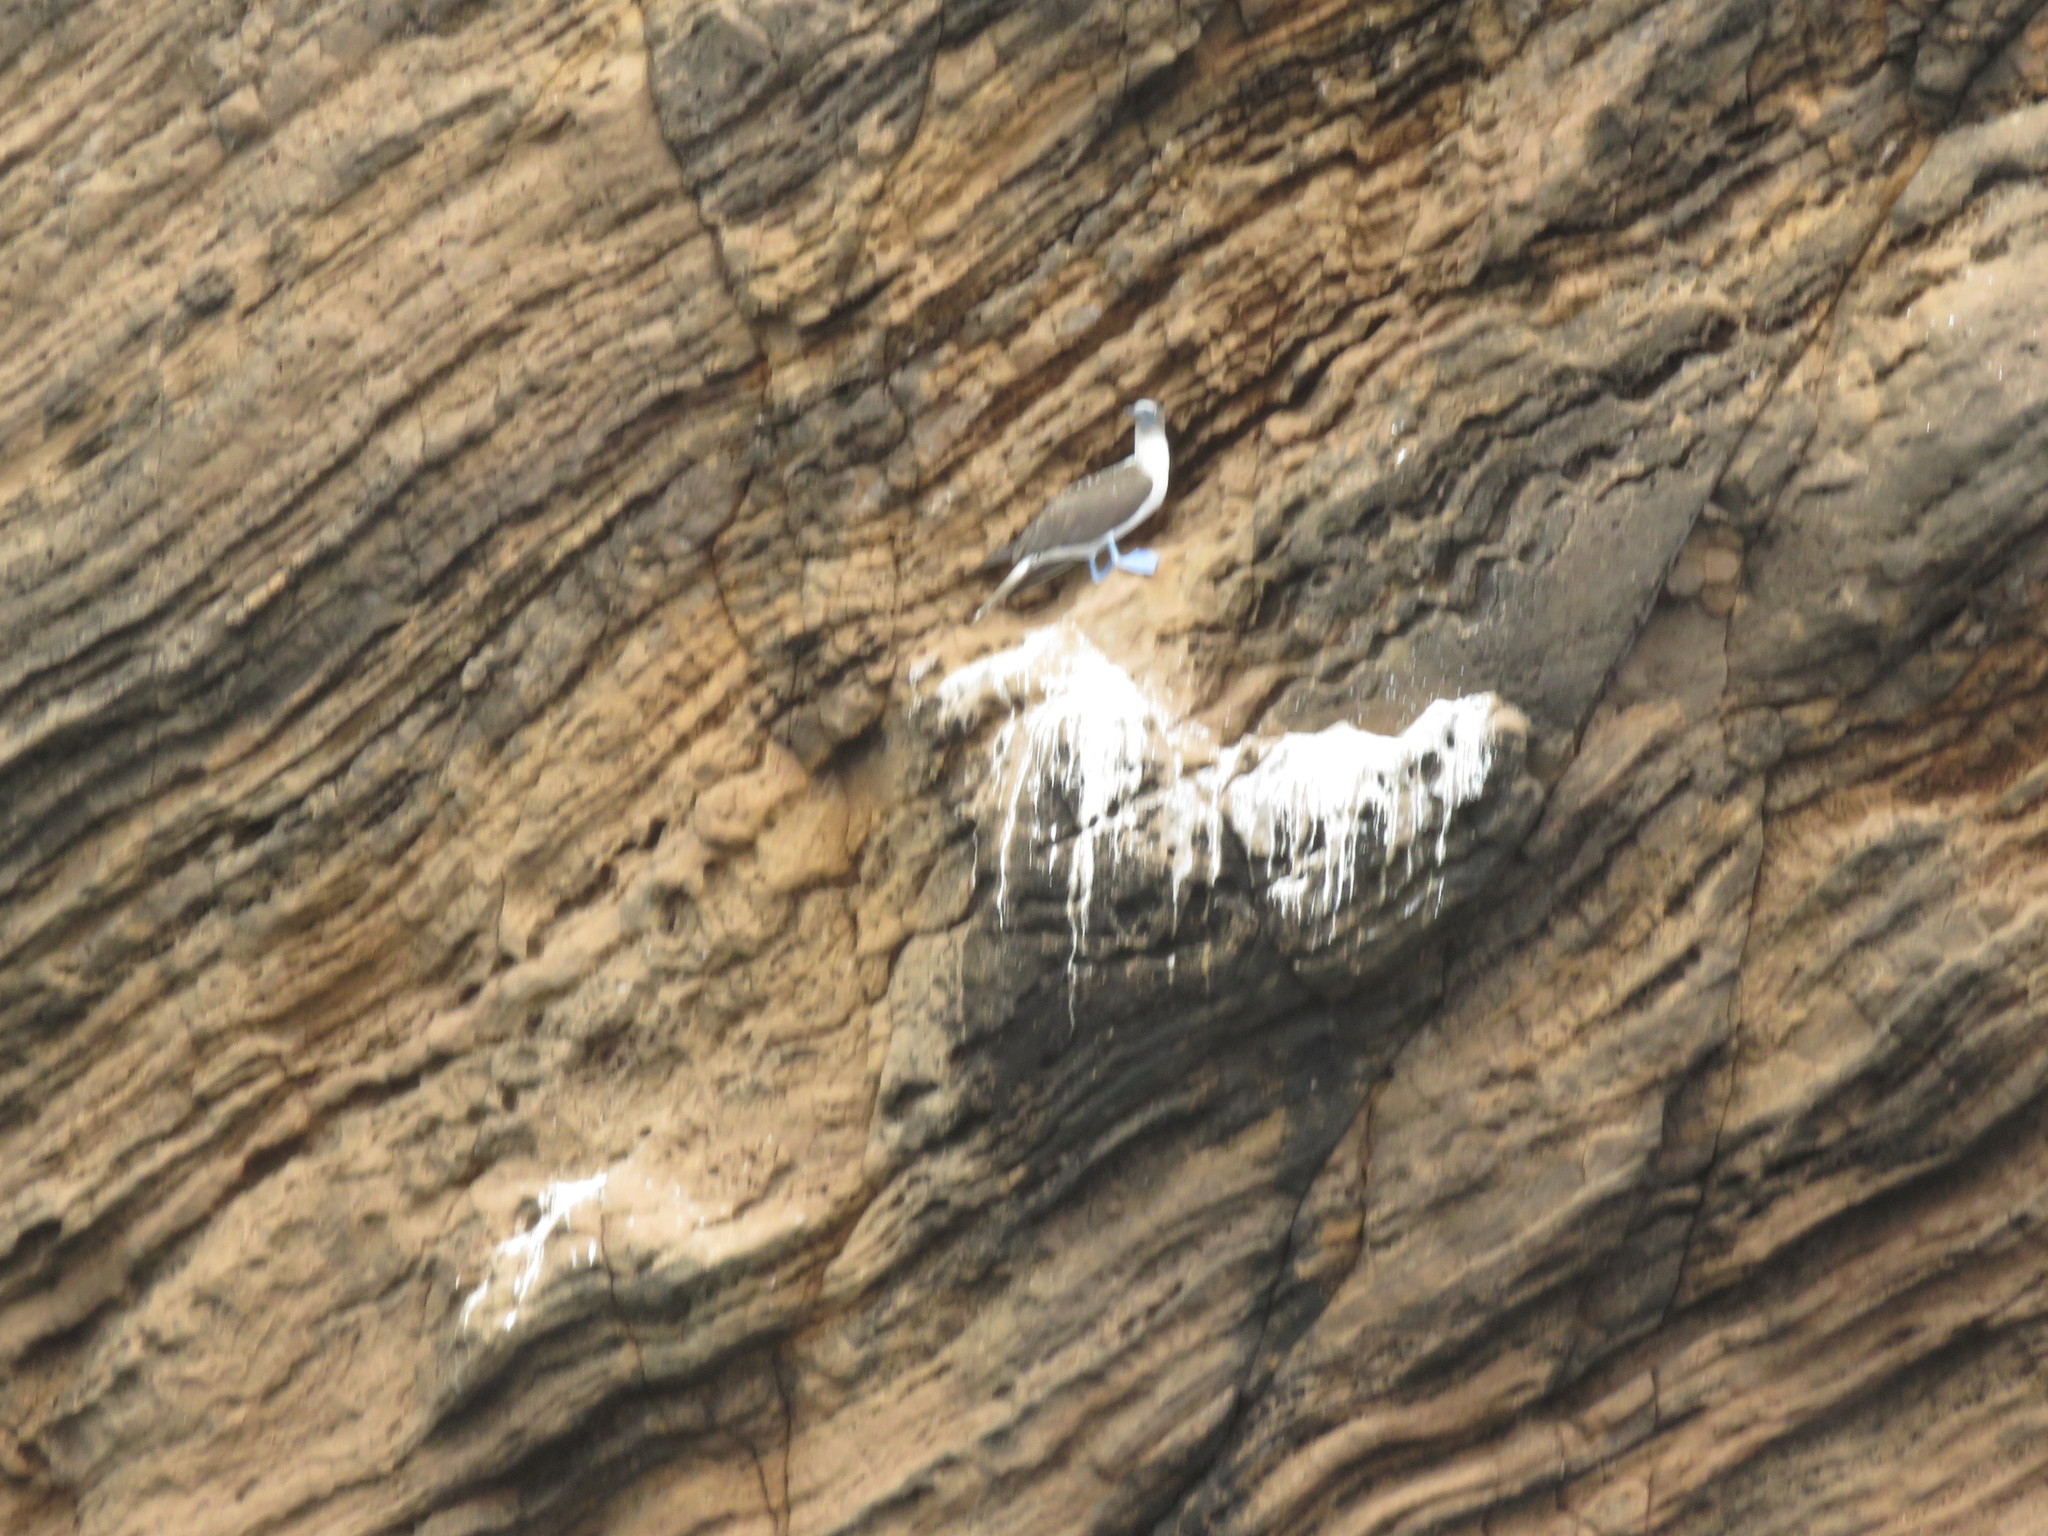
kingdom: Animalia
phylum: Chordata
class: Aves
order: Suliformes
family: Sulidae
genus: Sula
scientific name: Sula nebouxii
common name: Blue-footed booby
